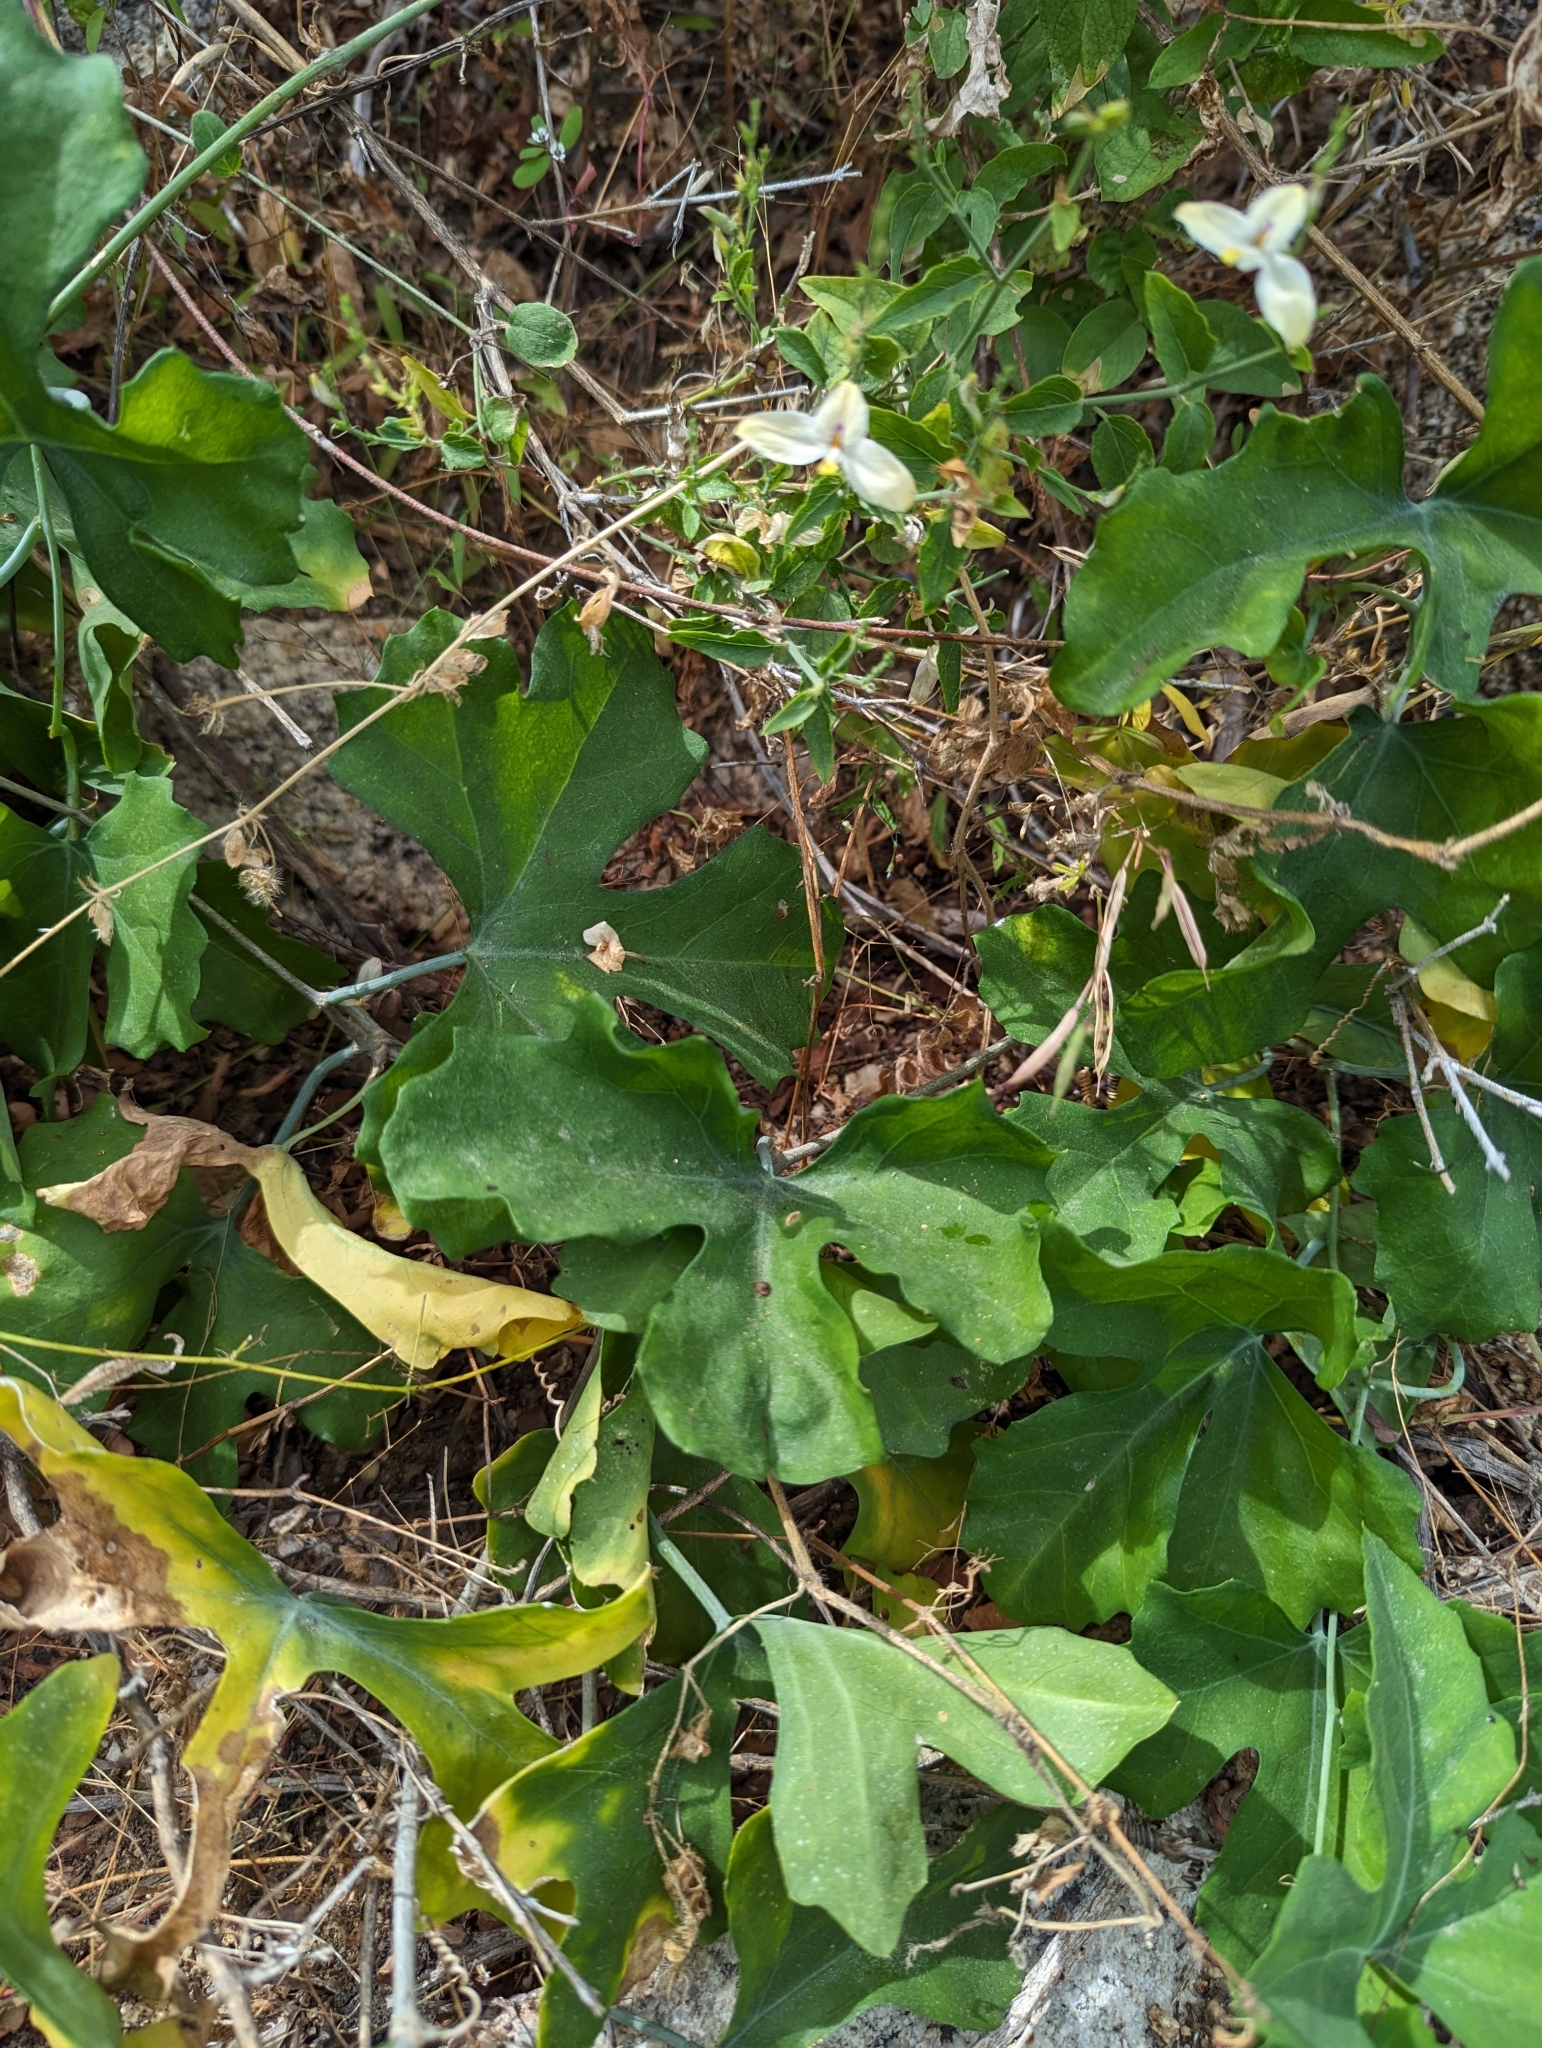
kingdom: Plantae
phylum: Tracheophyta
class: Magnoliopsida
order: Cucurbitales
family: Cucurbitaceae
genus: Ibervillea
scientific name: Ibervillea sonorae
